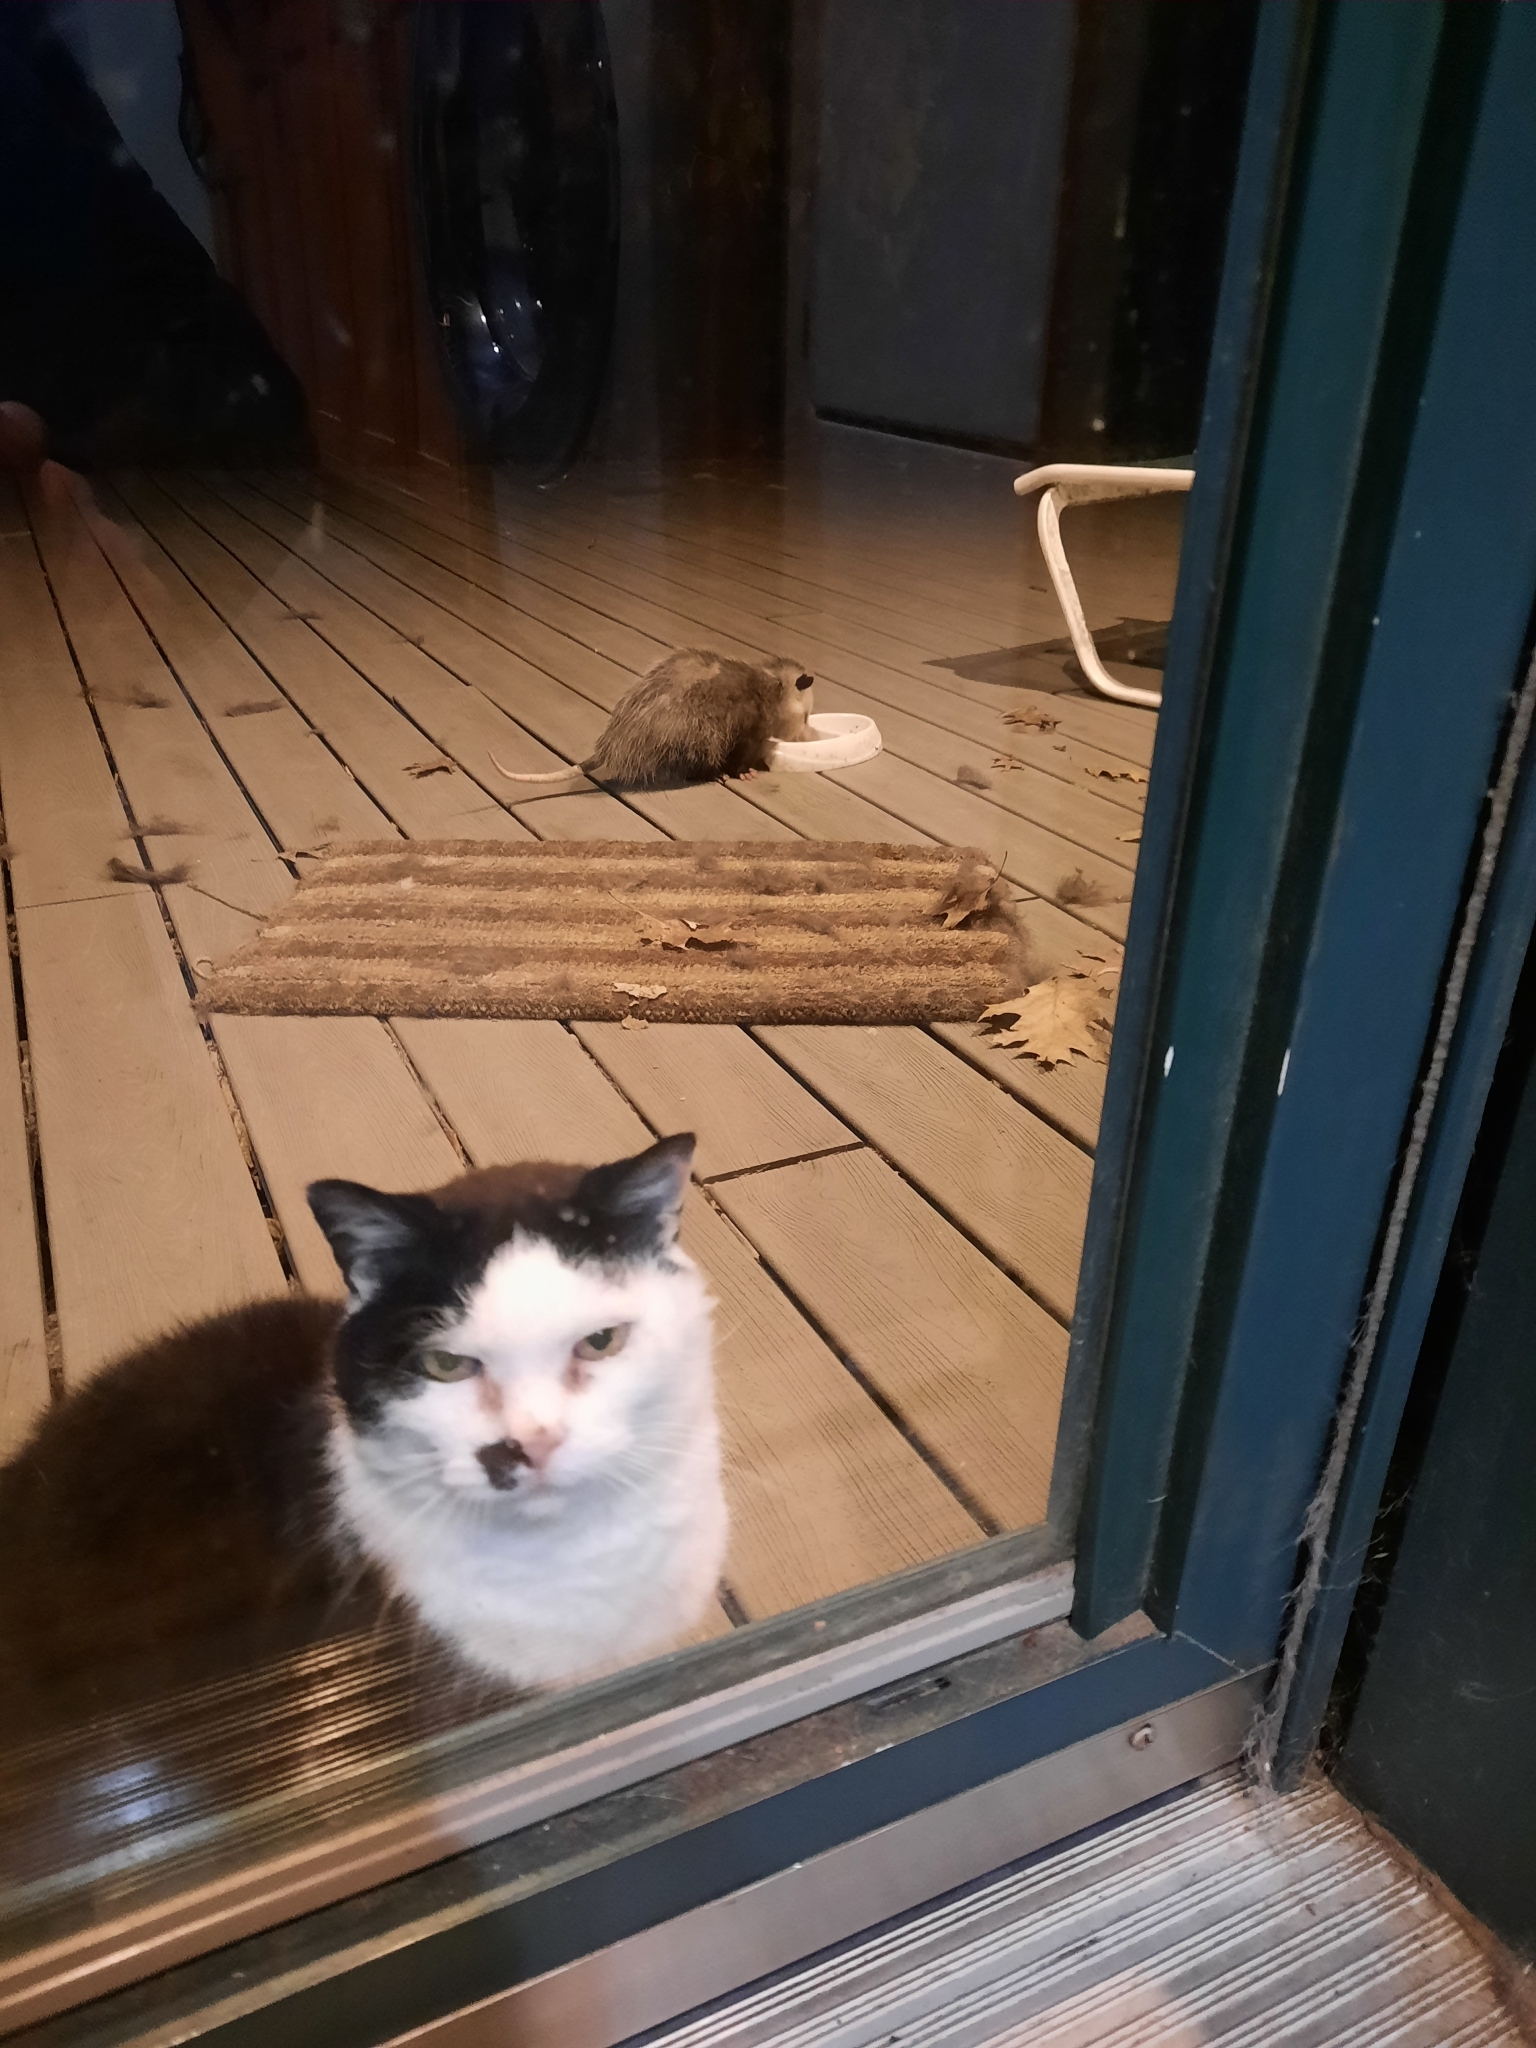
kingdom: Animalia
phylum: Chordata
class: Mammalia
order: Didelphimorphia
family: Didelphidae
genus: Didelphis
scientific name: Didelphis virginiana
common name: Virginia opossum
